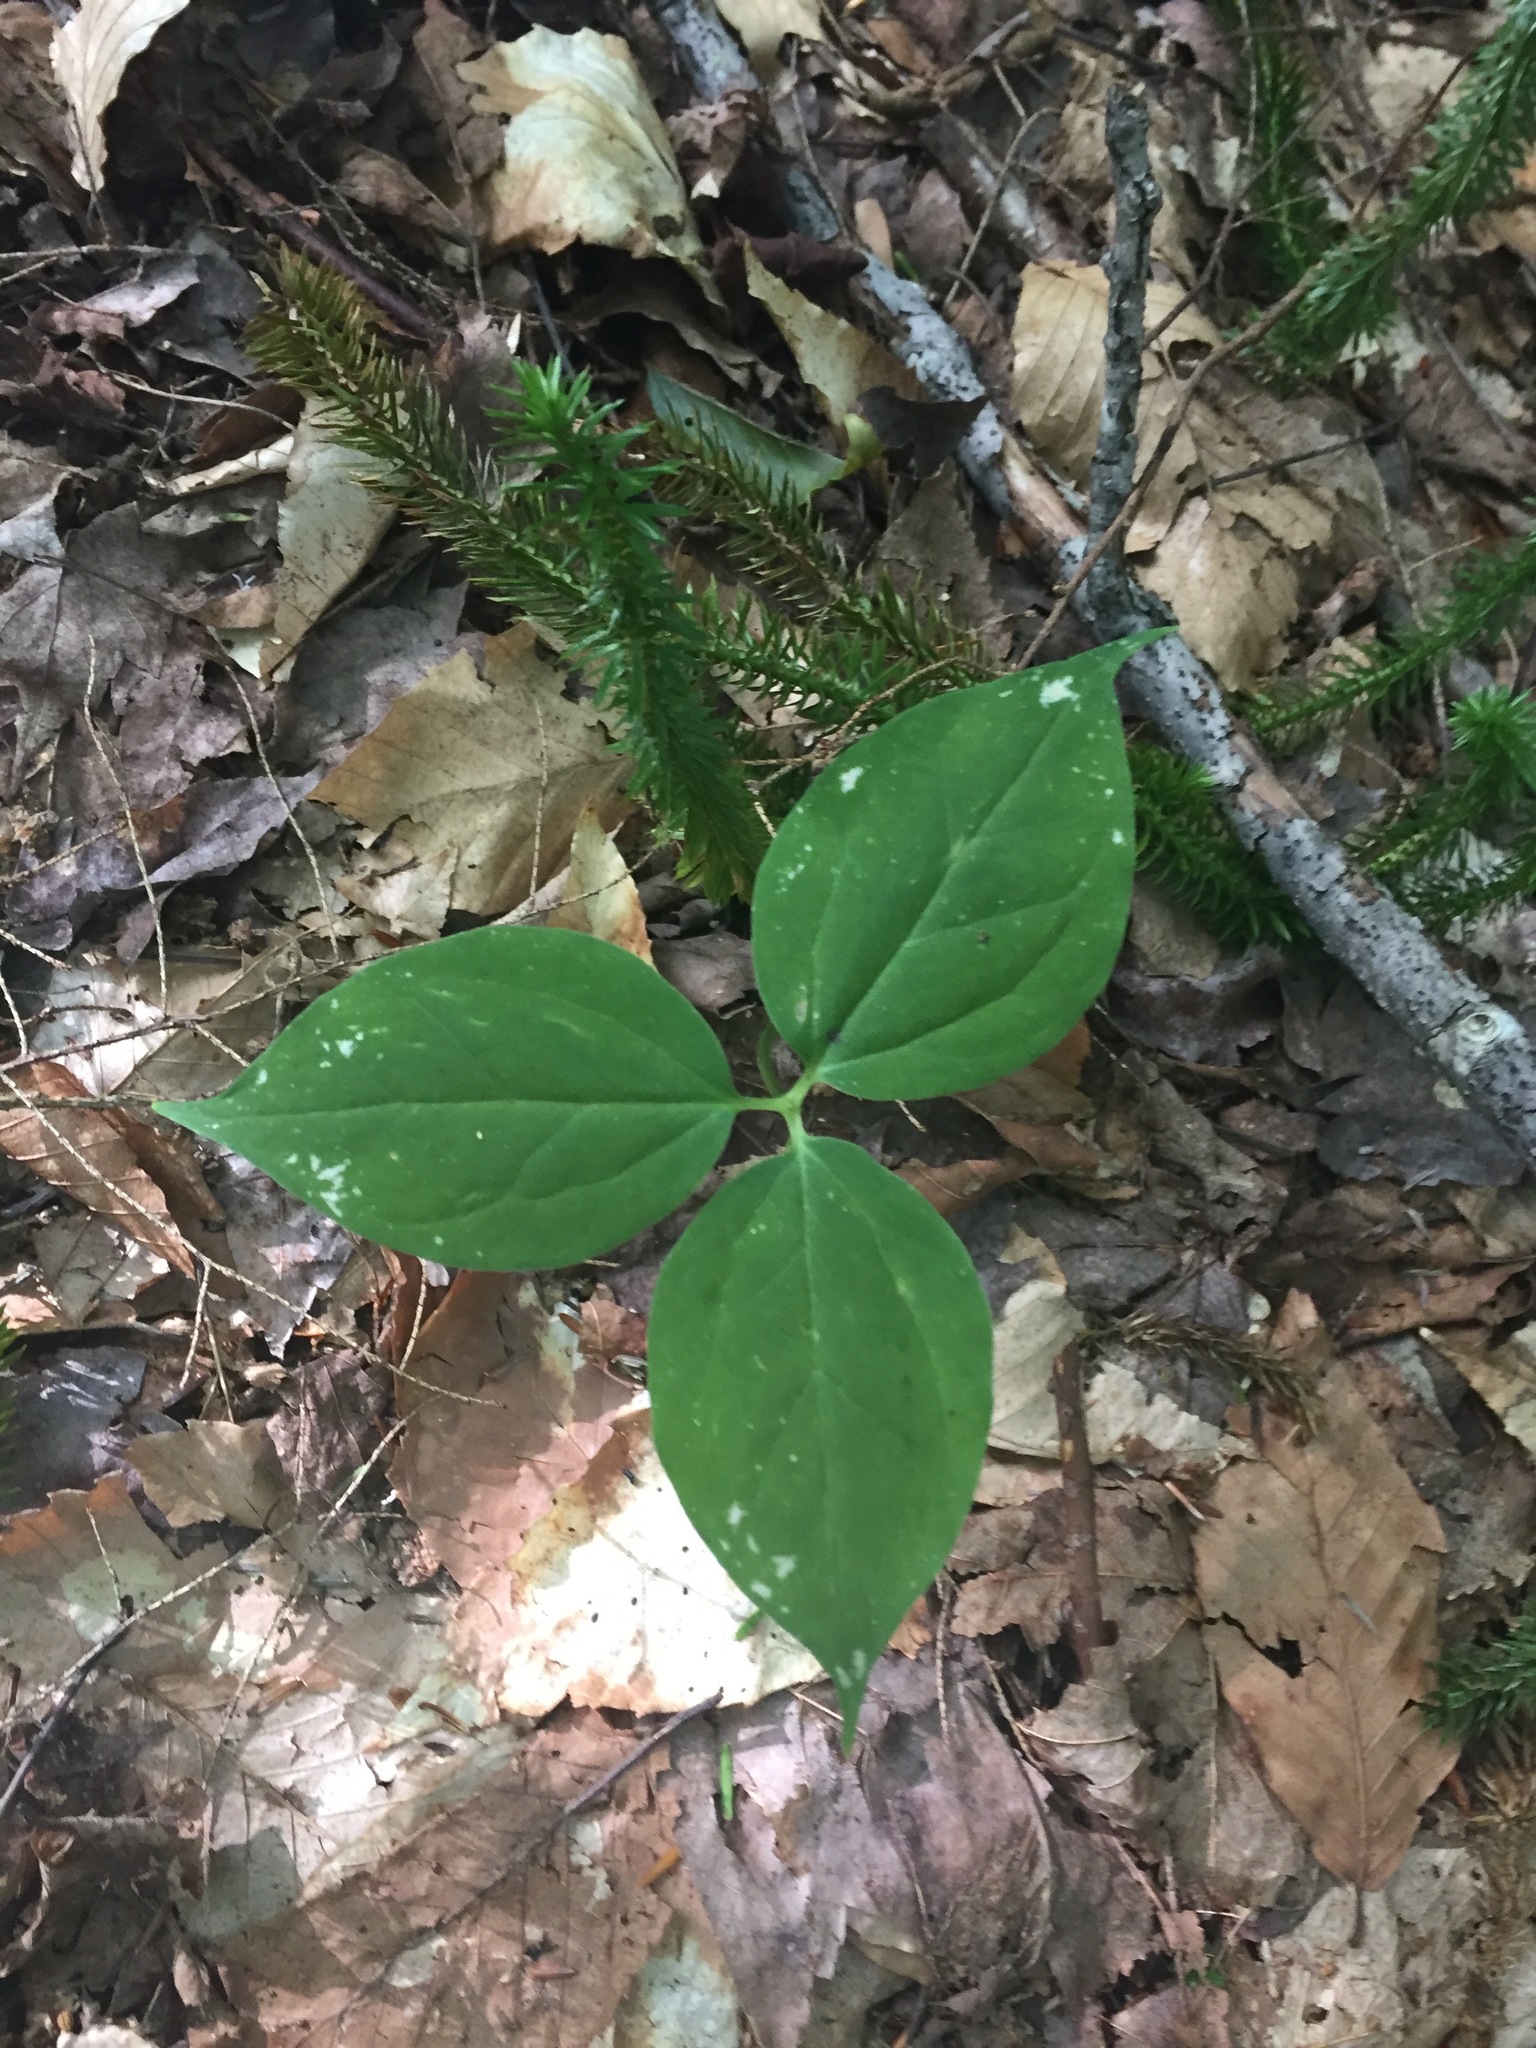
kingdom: Plantae
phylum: Tracheophyta
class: Liliopsida
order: Liliales
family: Melanthiaceae
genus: Trillium
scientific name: Trillium undulatum
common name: Paint trillium
